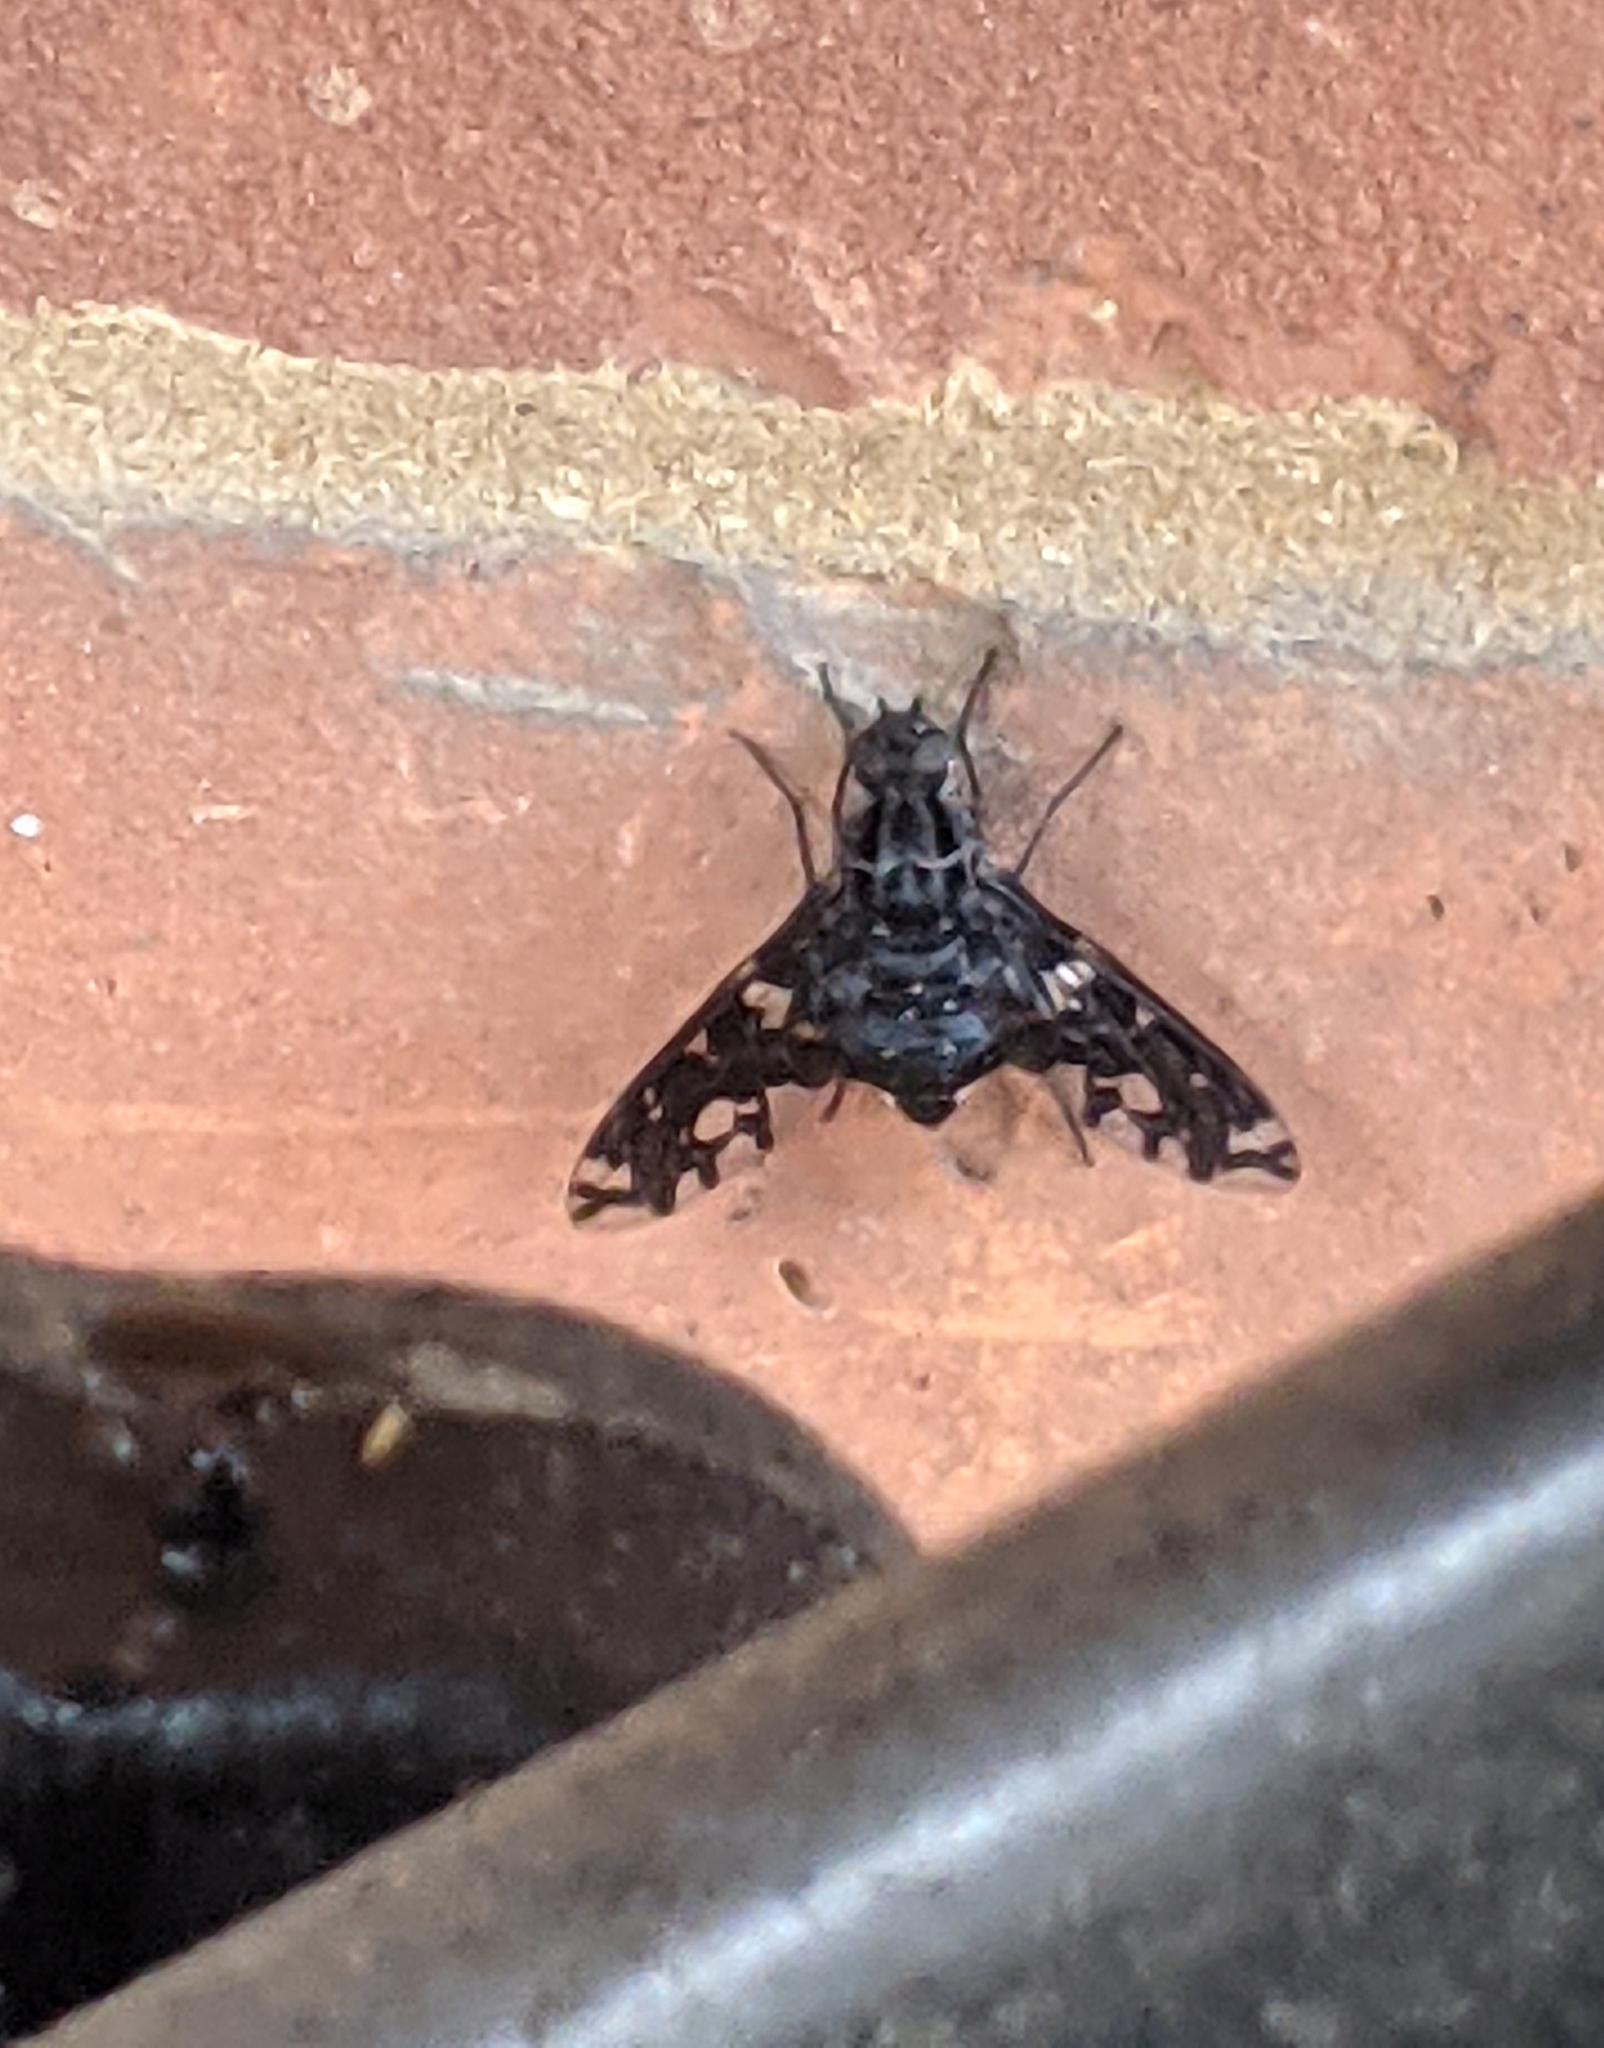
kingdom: Animalia
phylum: Arthropoda
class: Insecta
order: Diptera
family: Bombyliidae
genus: Xenox
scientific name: Xenox tigrinus
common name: Tiger bee fly
